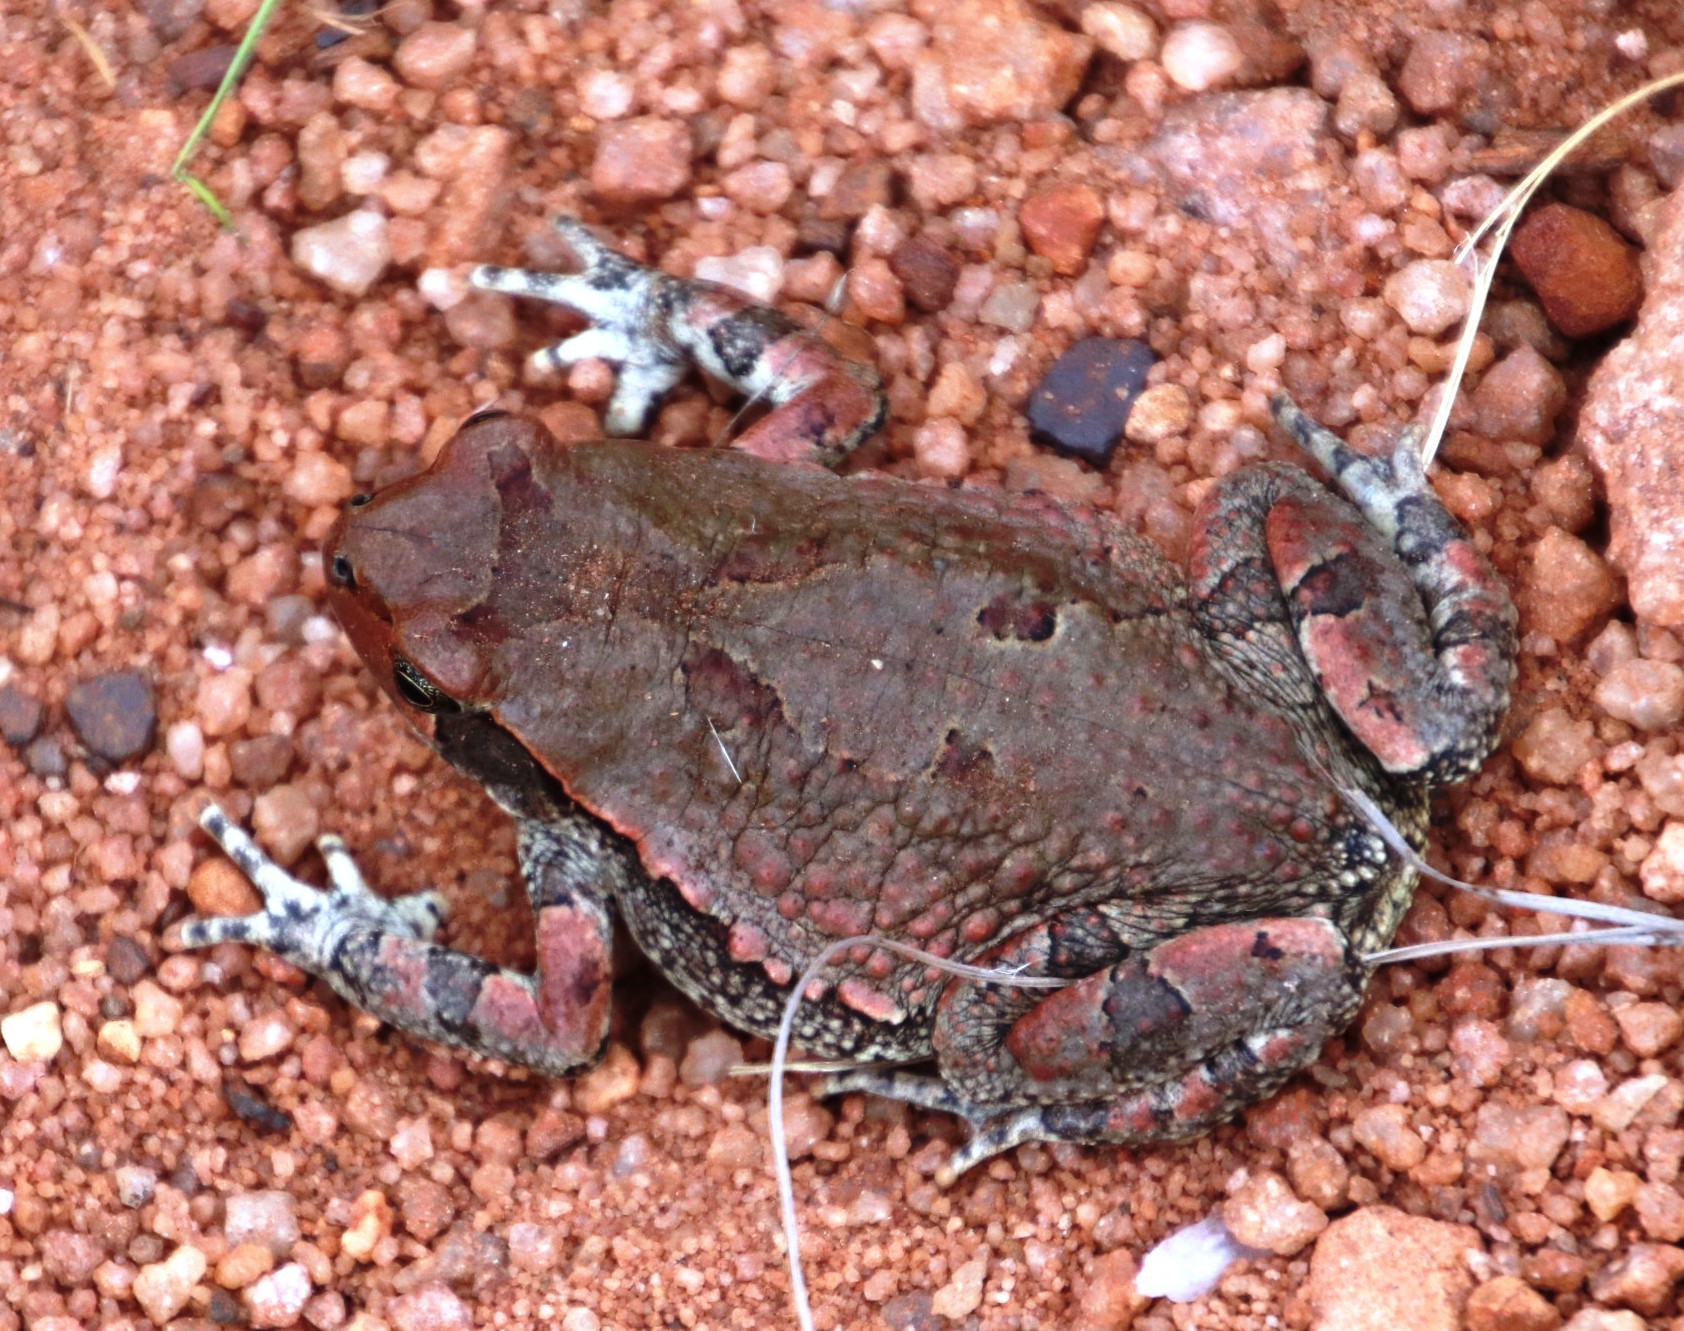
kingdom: Animalia
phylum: Chordata
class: Amphibia
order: Anura
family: Bufonidae
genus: Schismaderma
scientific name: Schismaderma carens
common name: African split-skin toad
